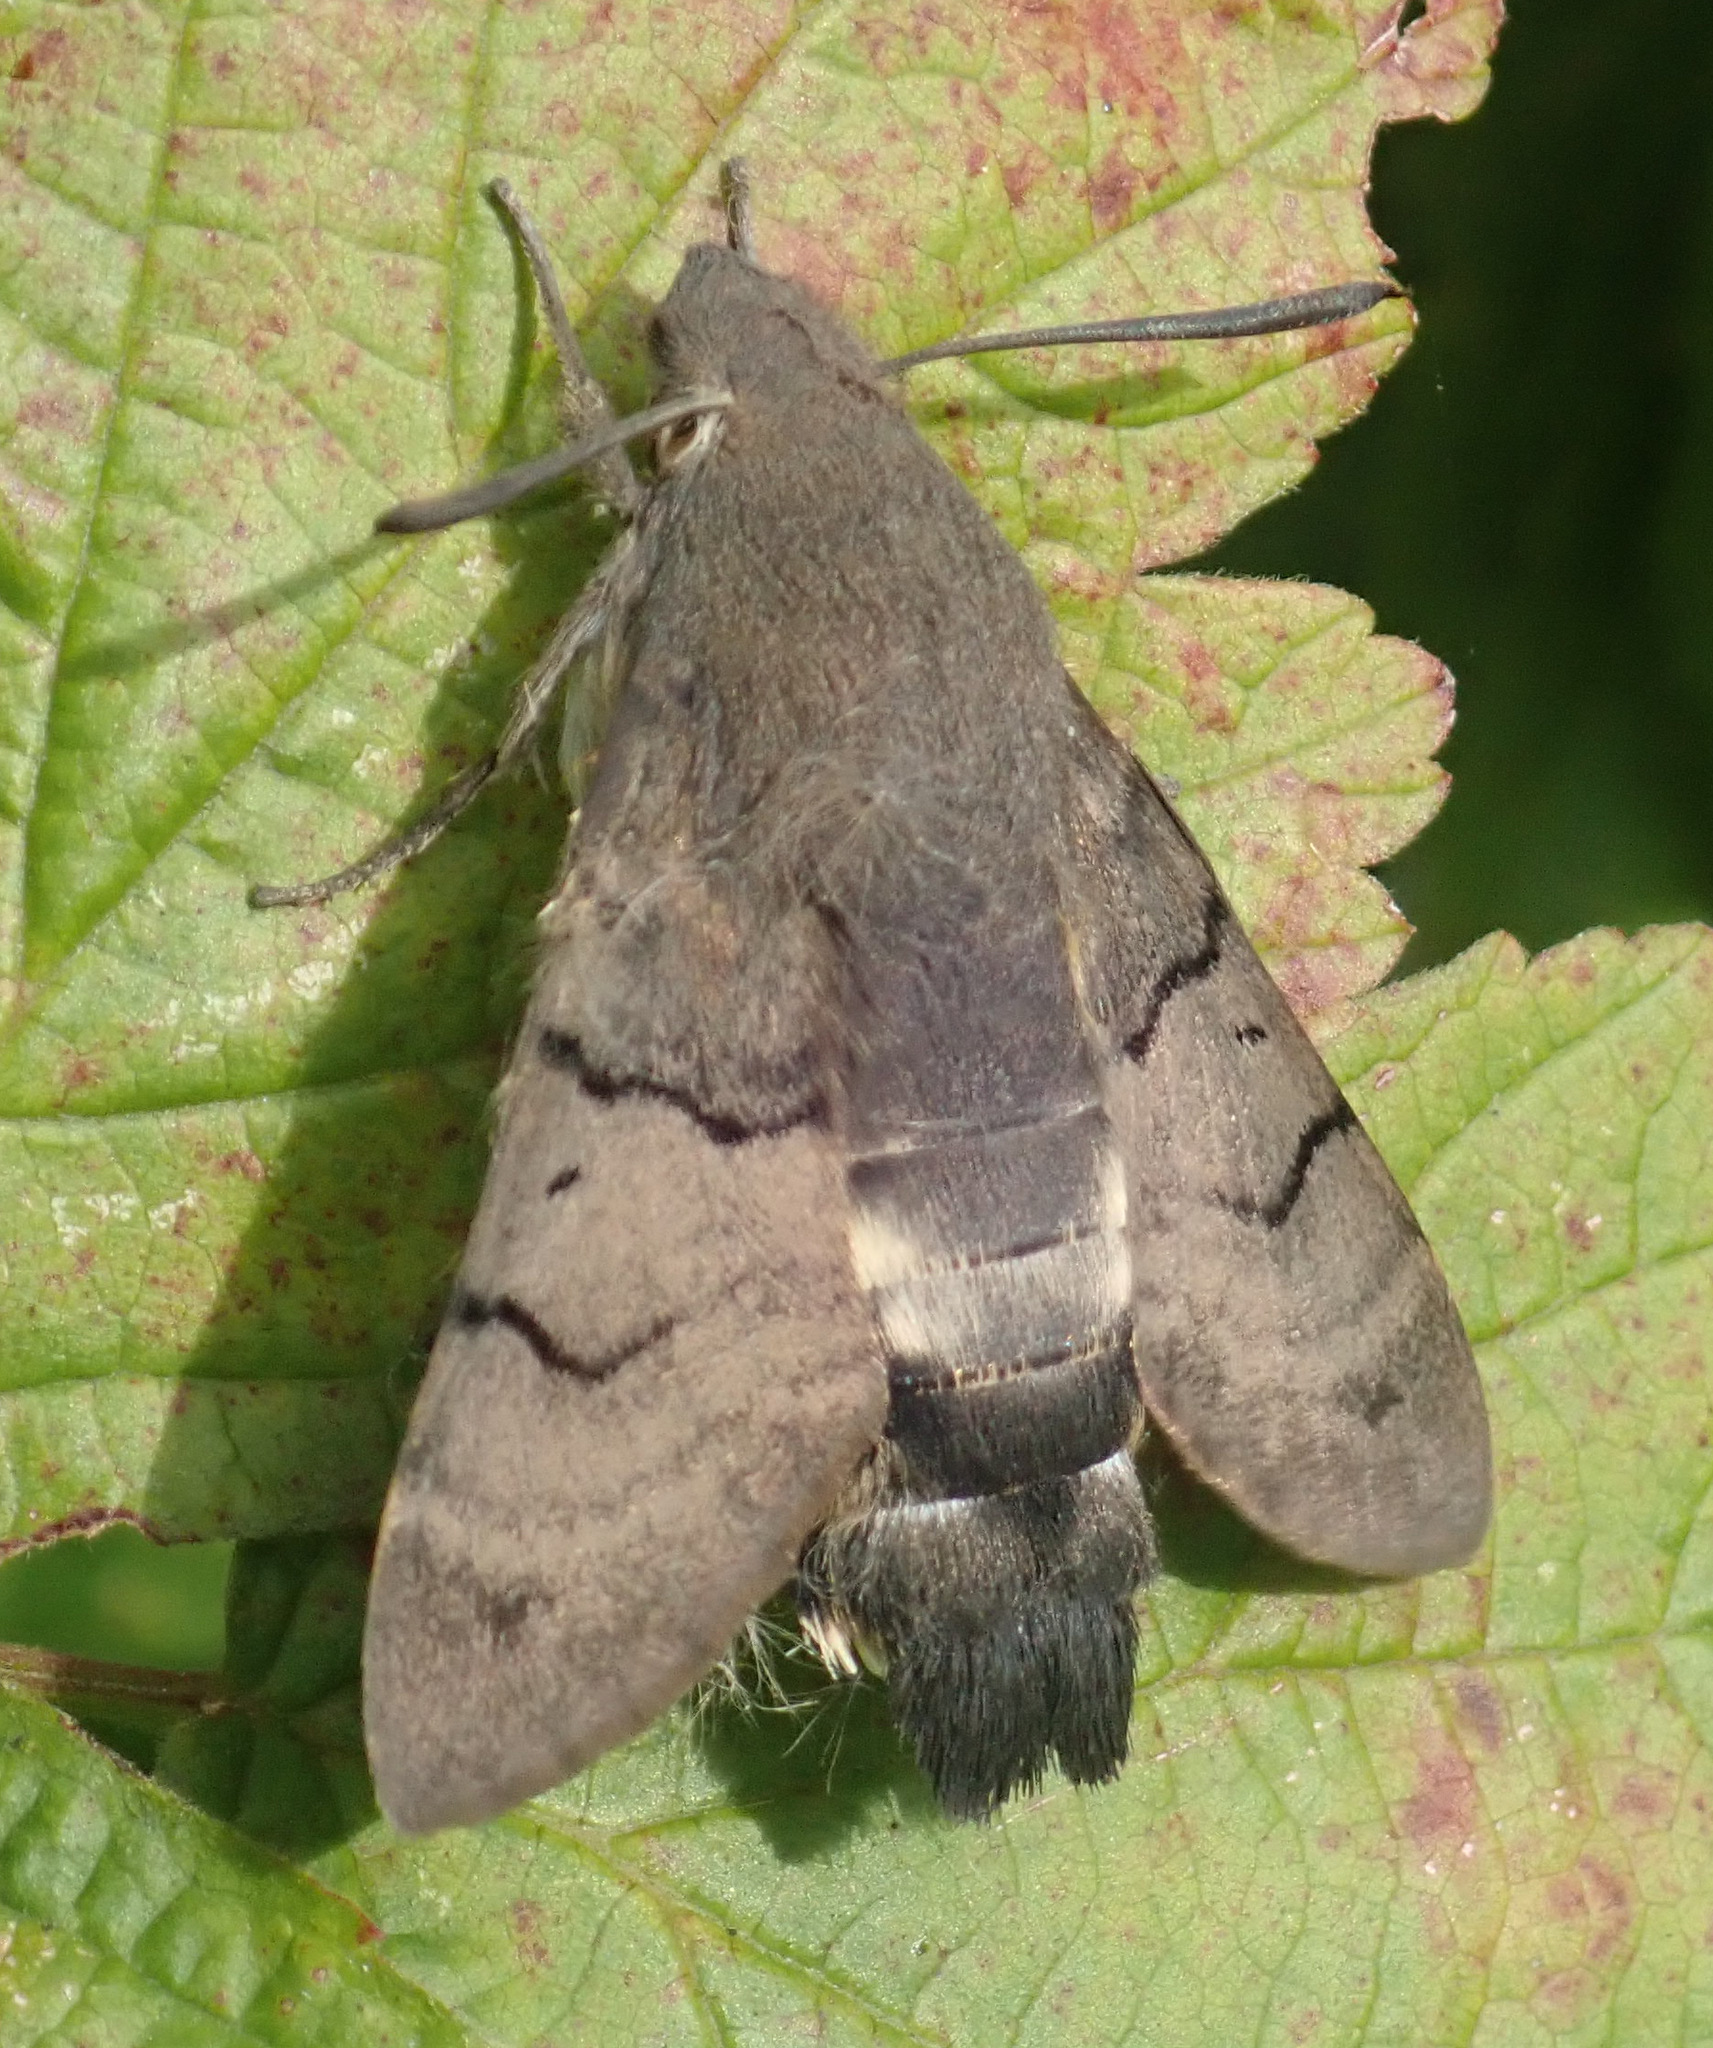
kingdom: Animalia
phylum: Arthropoda
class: Insecta
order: Lepidoptera
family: Sphingidae
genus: Macroglossum
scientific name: Macroglossum stellatarum
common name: Humming-bird hawk-moth
